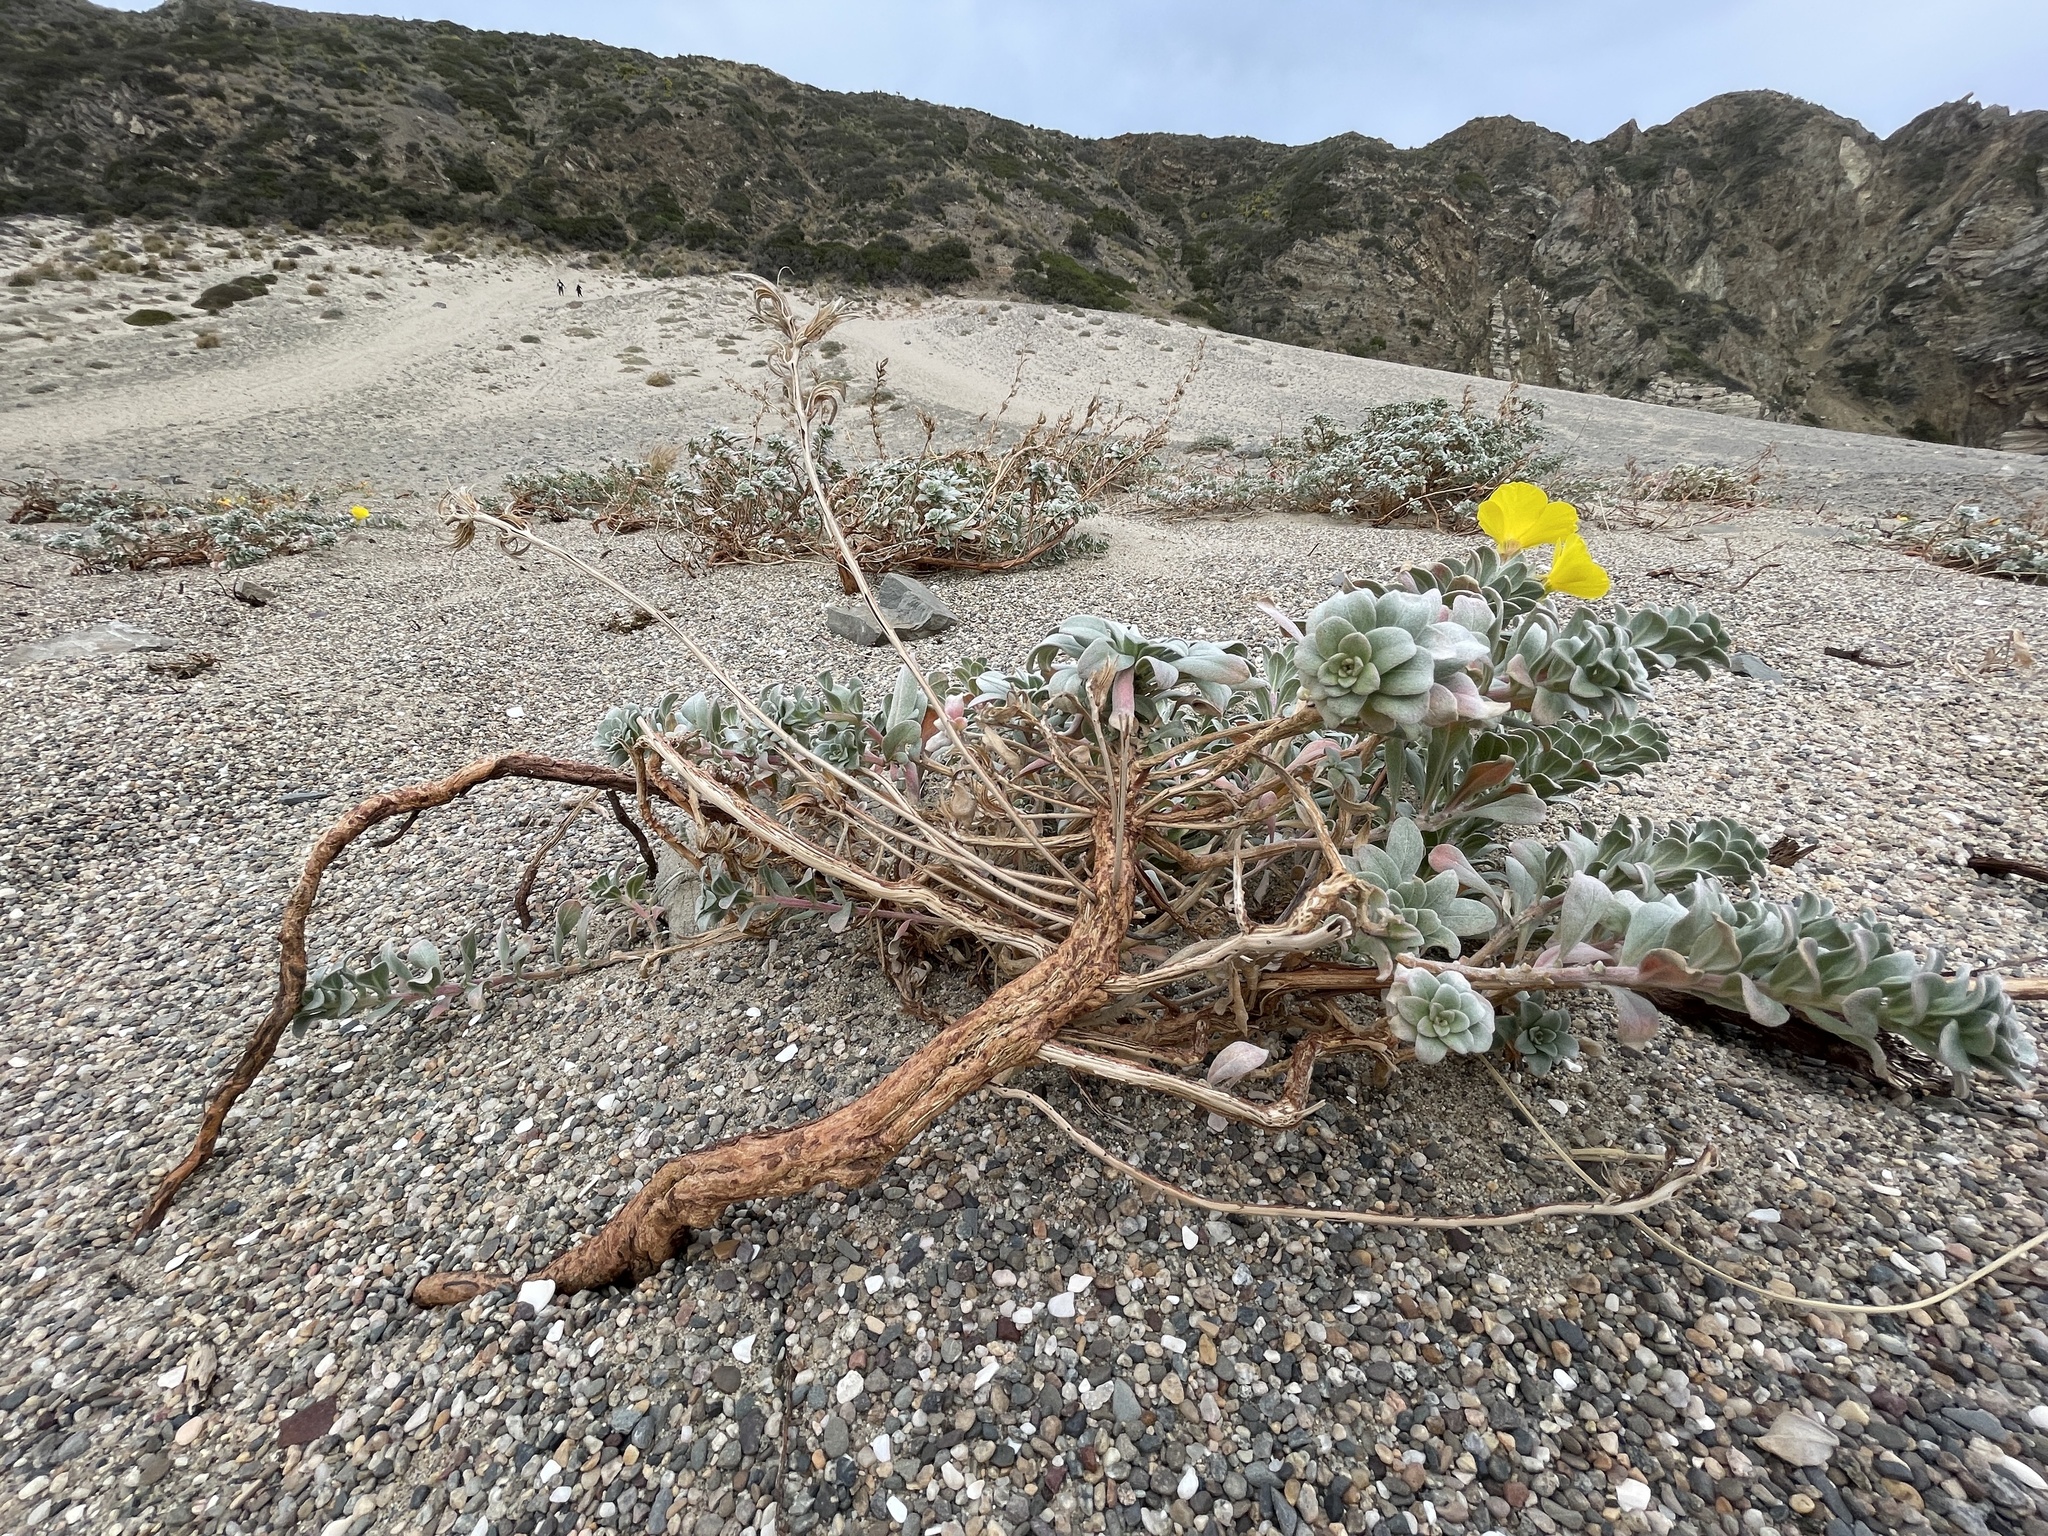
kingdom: Plantae
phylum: Tracheophyta
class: Magnoliopsida
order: Myrtales
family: Onagraceae
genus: Camissoniopsis
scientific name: Camissoniopsis cheiranthifolia
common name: Beach suncup
